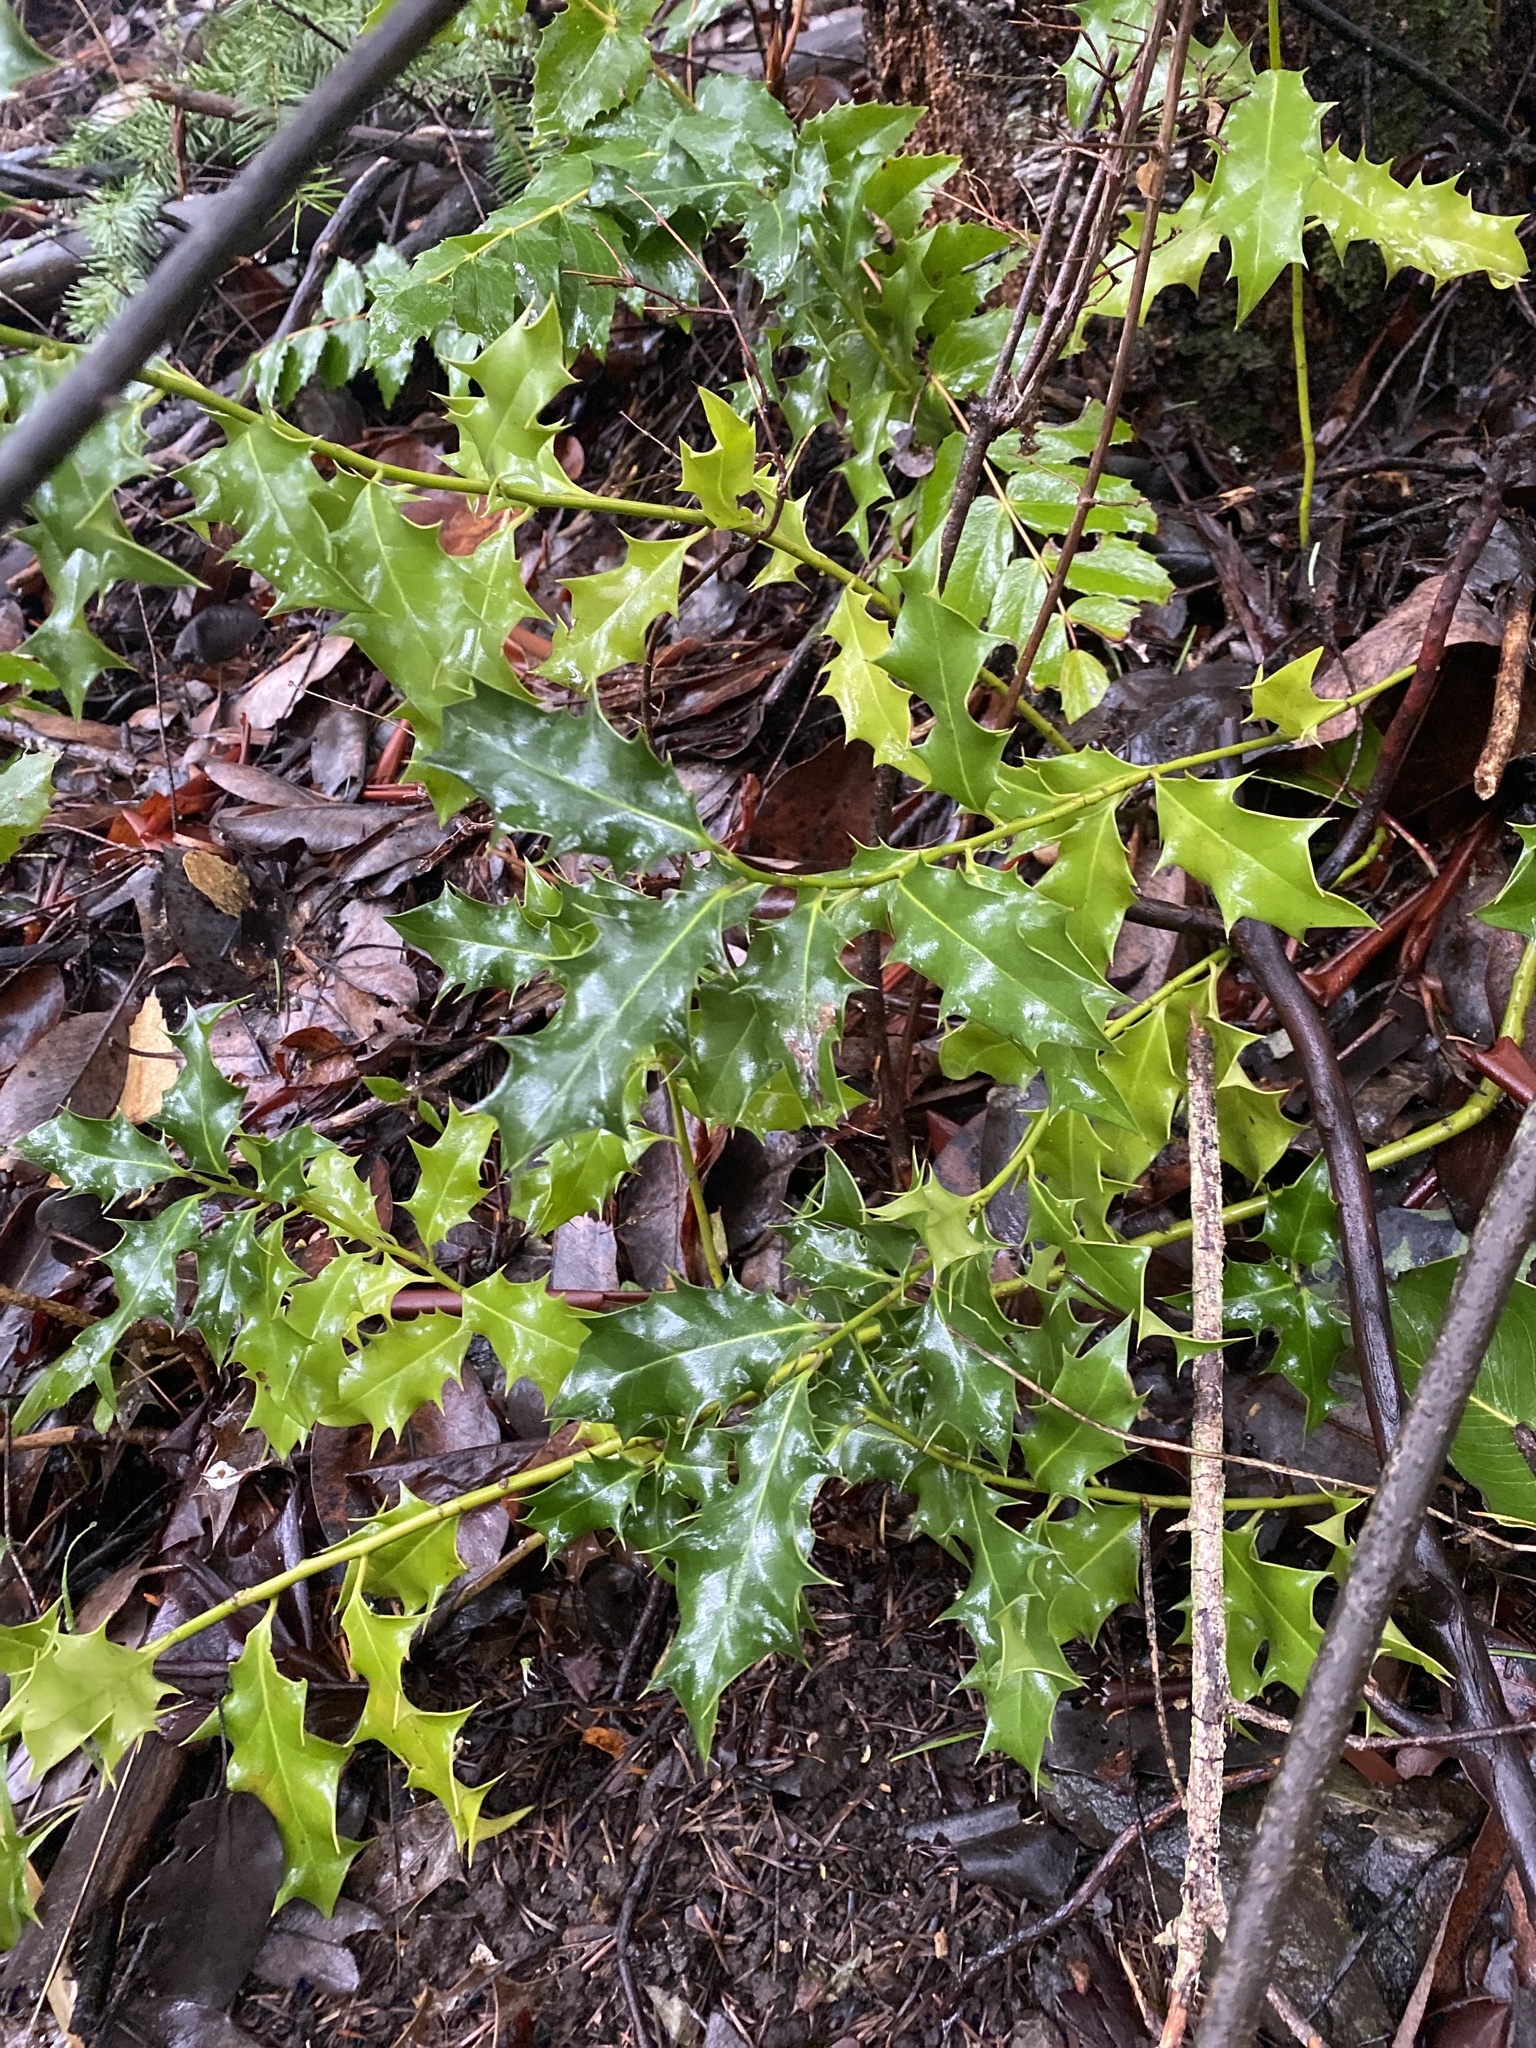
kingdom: Plantae
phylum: Tracheophyta
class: Magnoliopsida
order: Aquifoliales
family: Aquifoliaceae
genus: Ilex
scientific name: Ilex aquifolium
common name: English holly
